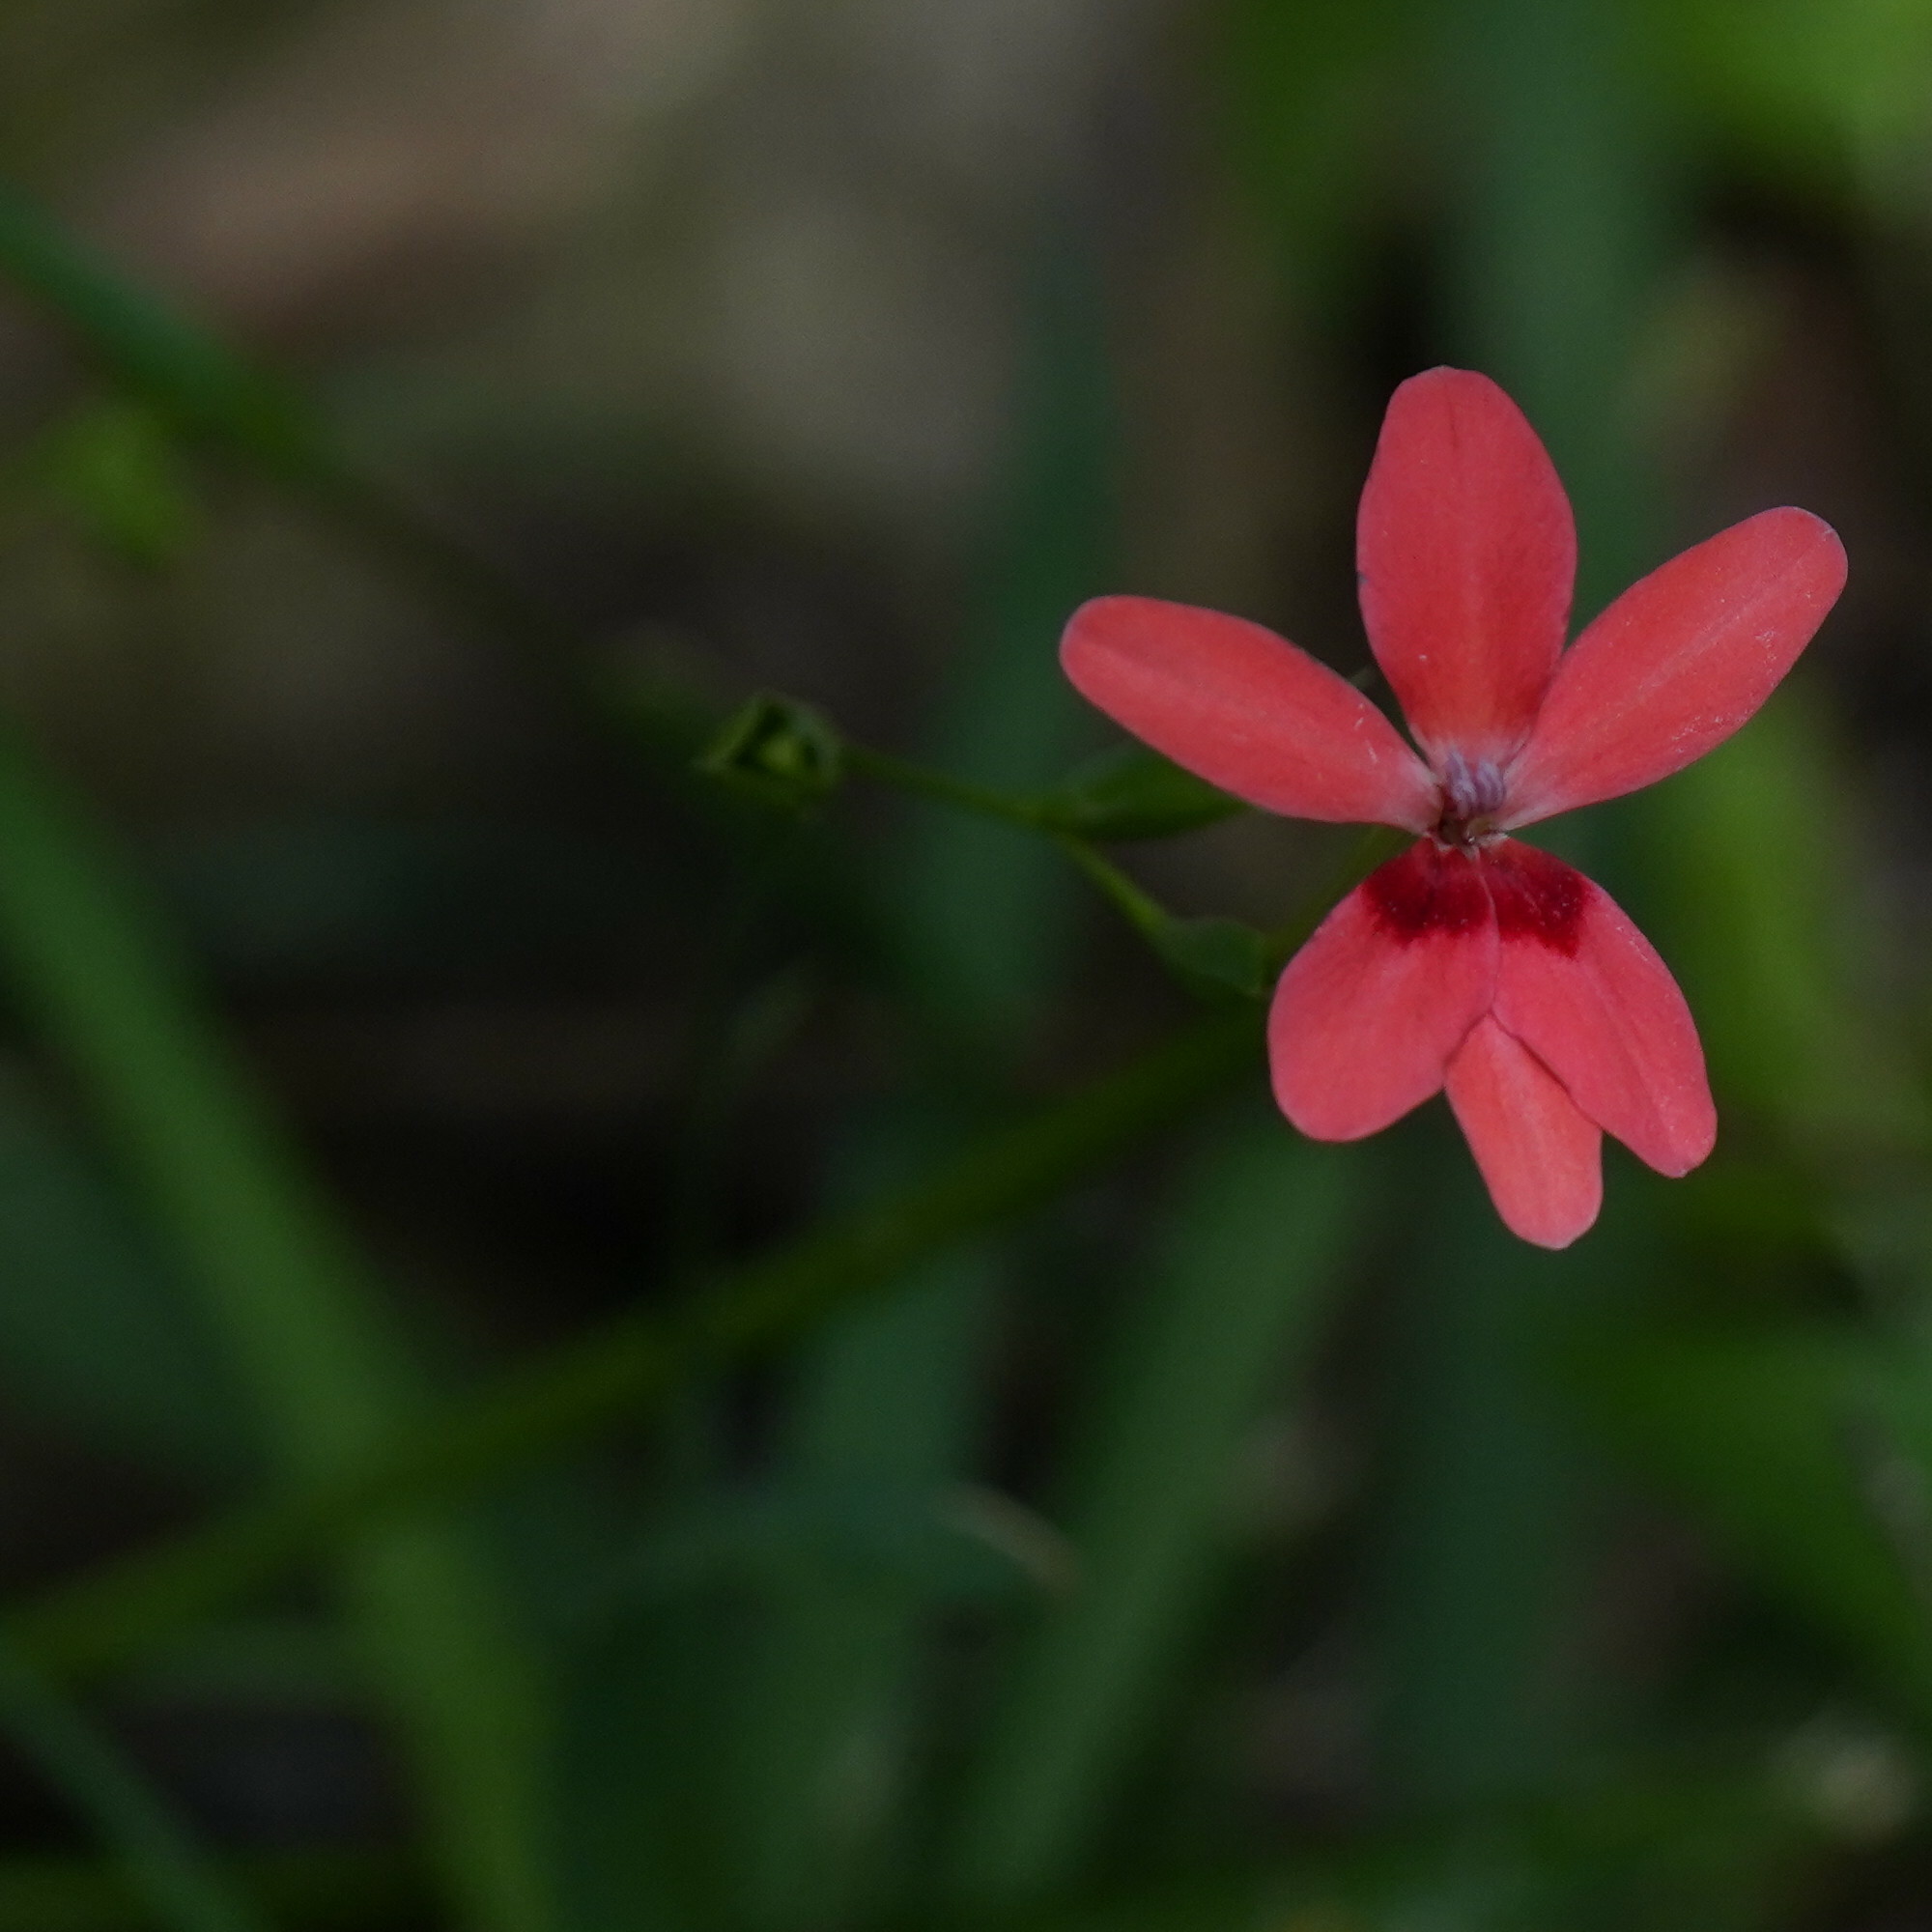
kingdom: Plantae
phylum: Tracheophyta
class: Liliopsida
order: Asparagales
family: Iridaceae
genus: Freesia
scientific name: Freesia laxa
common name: False freesia
